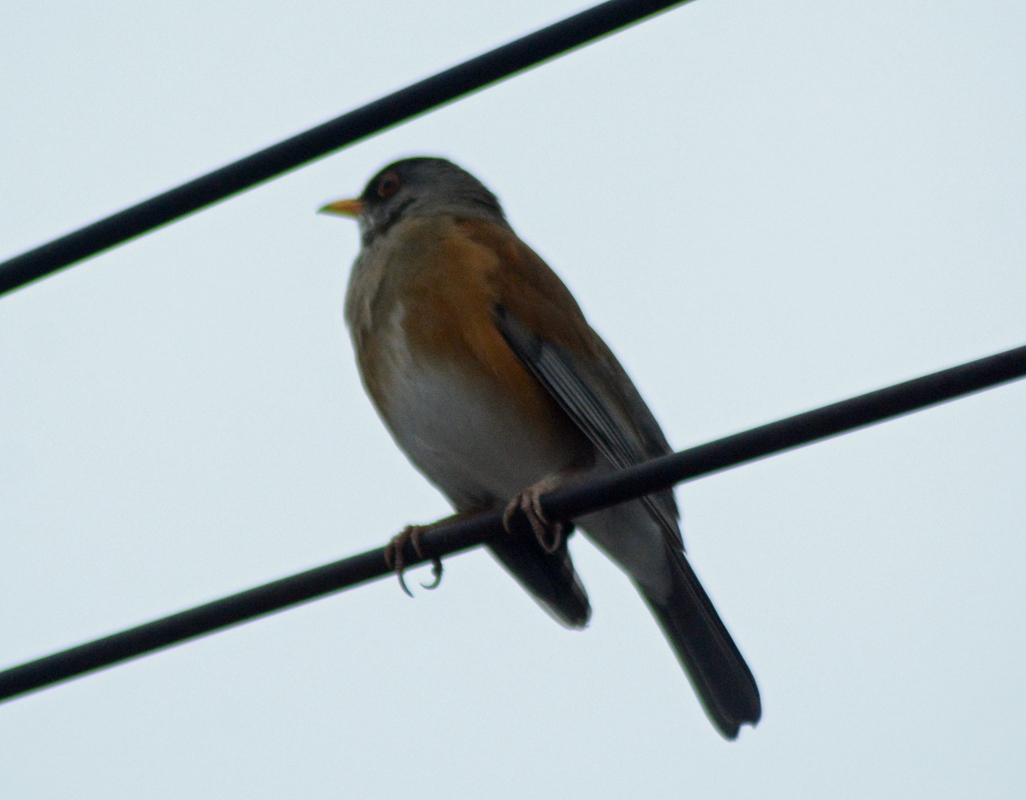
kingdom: Animalia
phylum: Chordata
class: Aves
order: Passeriformes
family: Turdidae
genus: Turdus
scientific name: Turdus rufopalliatus
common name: Rufous-backed robin
